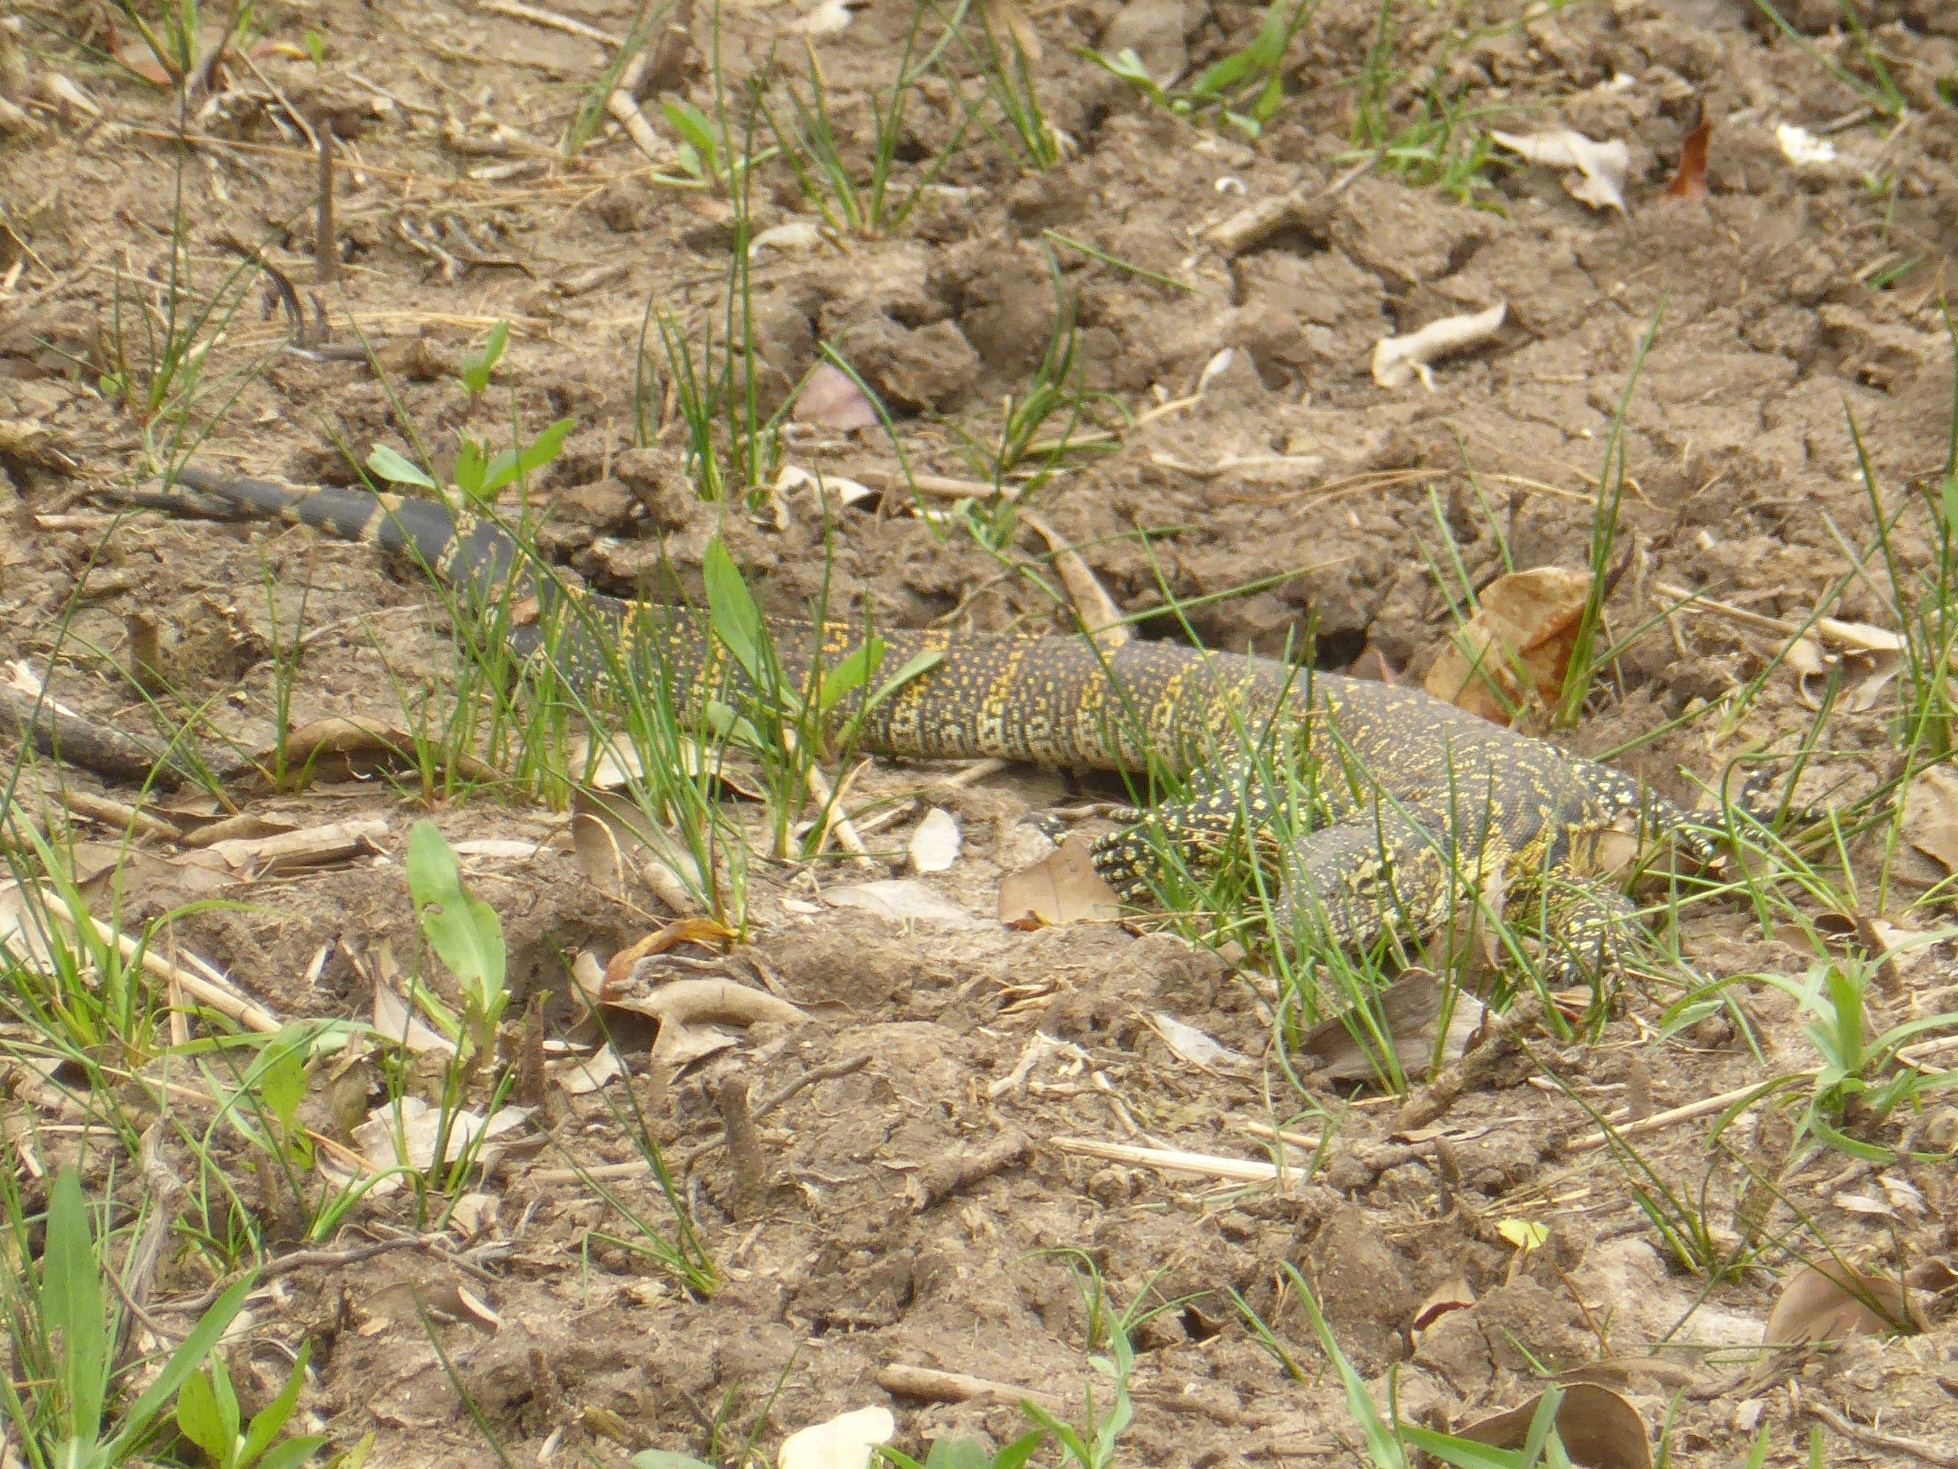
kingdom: Animalia
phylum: Chordata
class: Squamata
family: Varanidae
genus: Varanus
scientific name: Varanus niloticus
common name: Nile monitor
